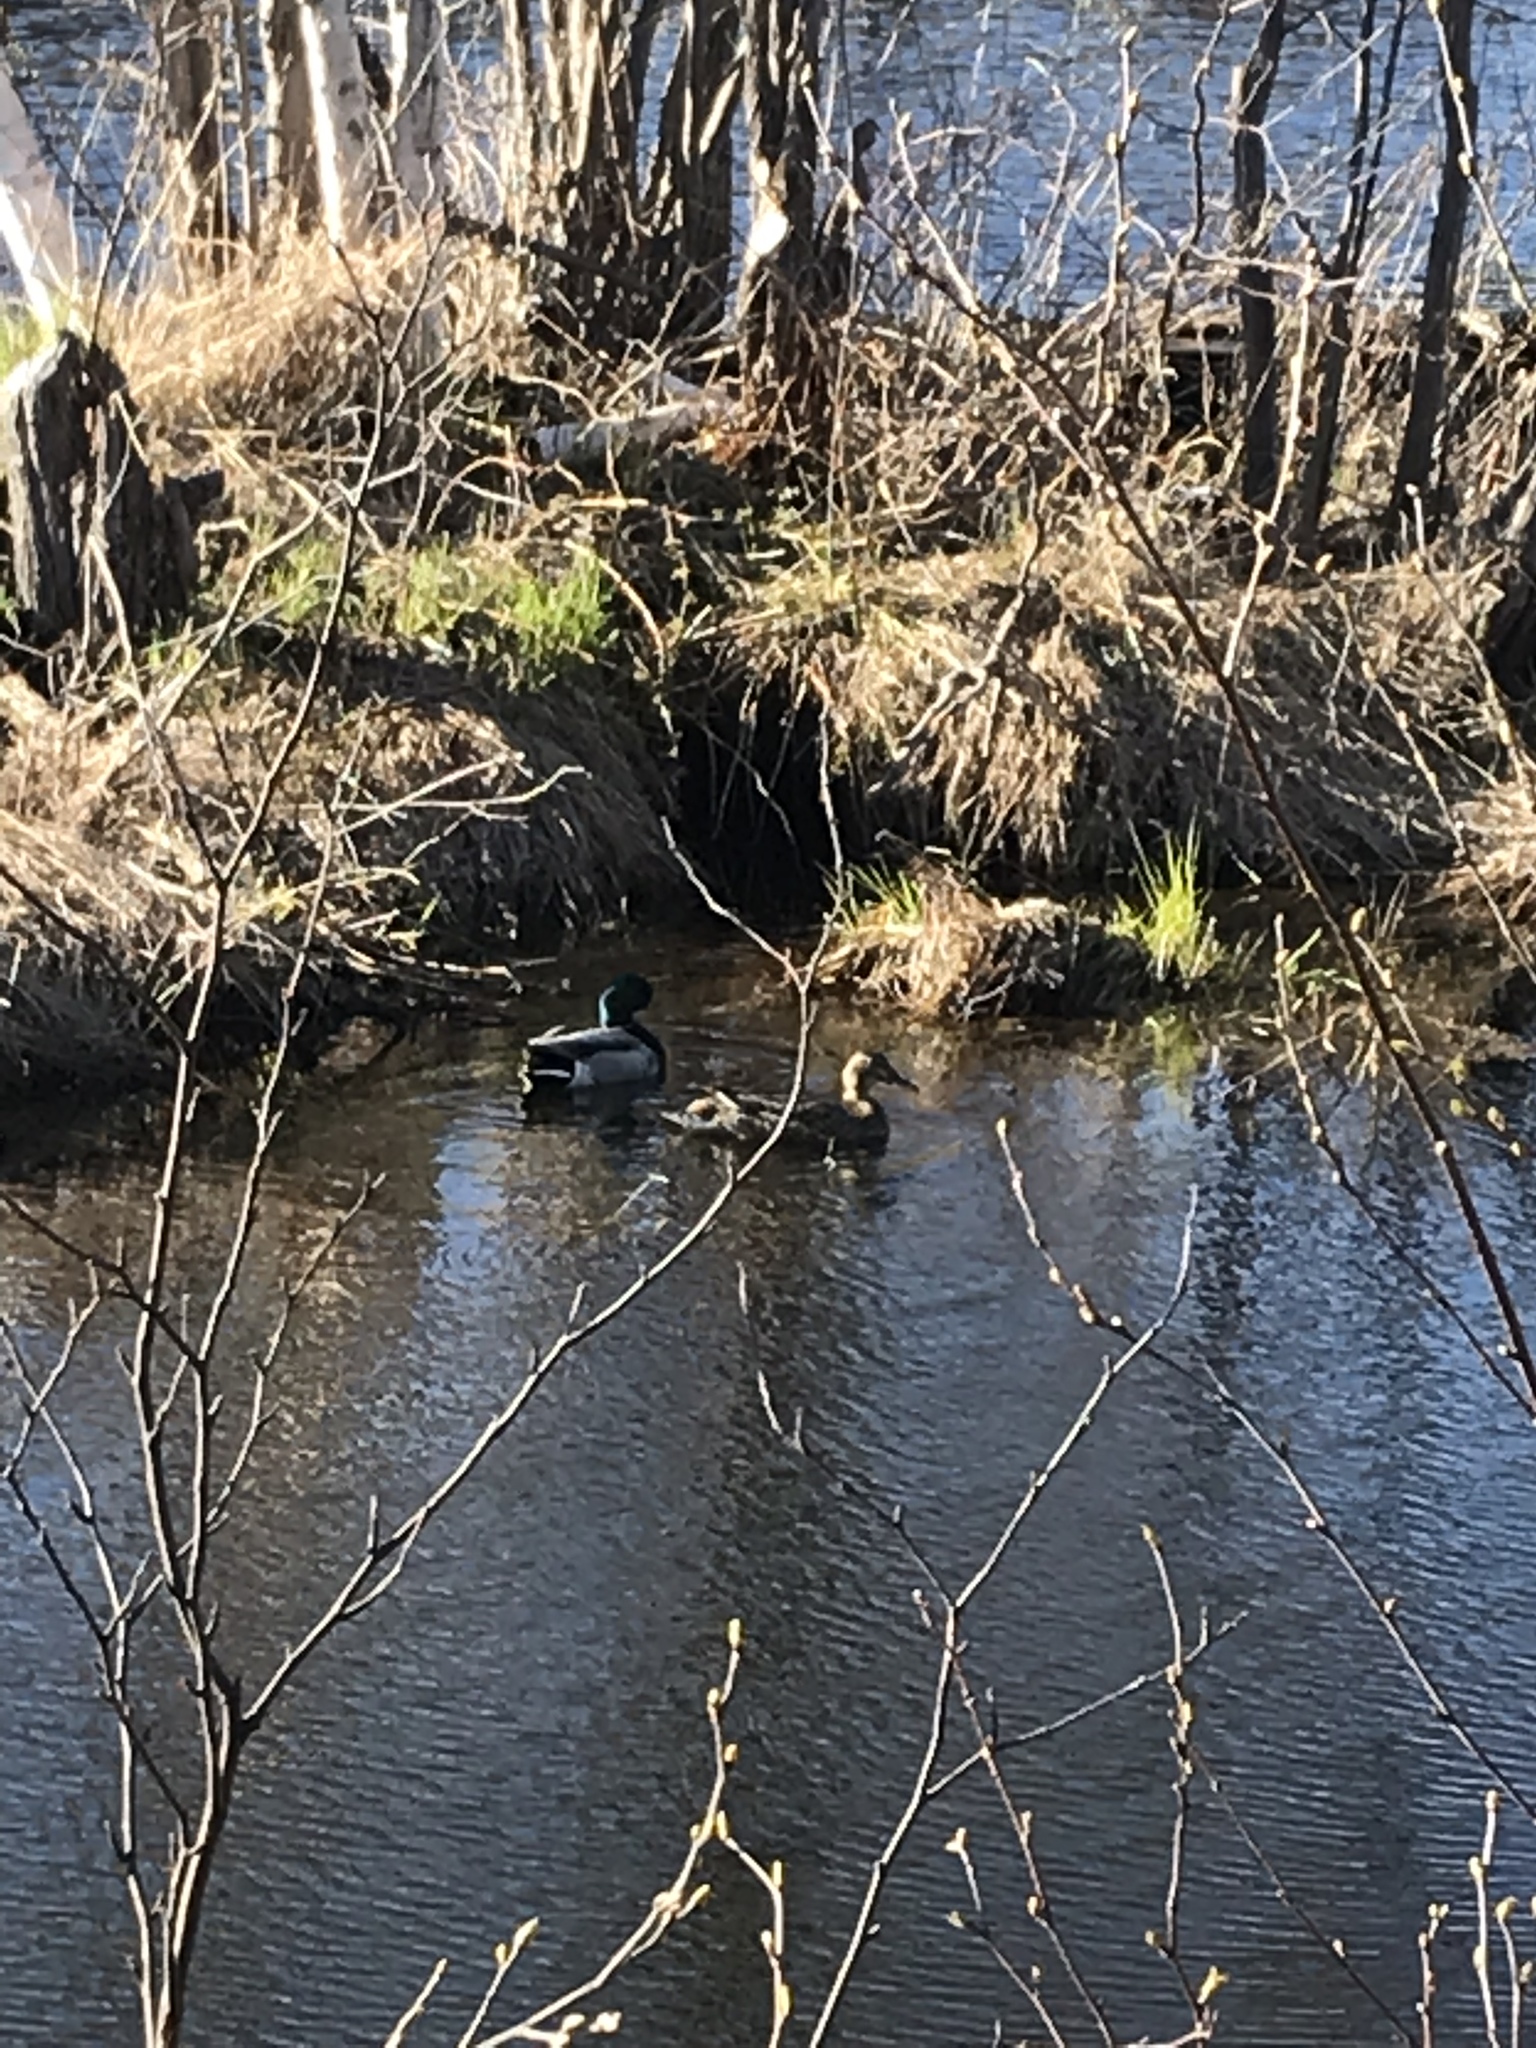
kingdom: Animalia
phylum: Chordata
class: Aves
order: Anseriformes
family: Anatidae
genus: Anas
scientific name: Anas platyrhynchos
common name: Mallard
